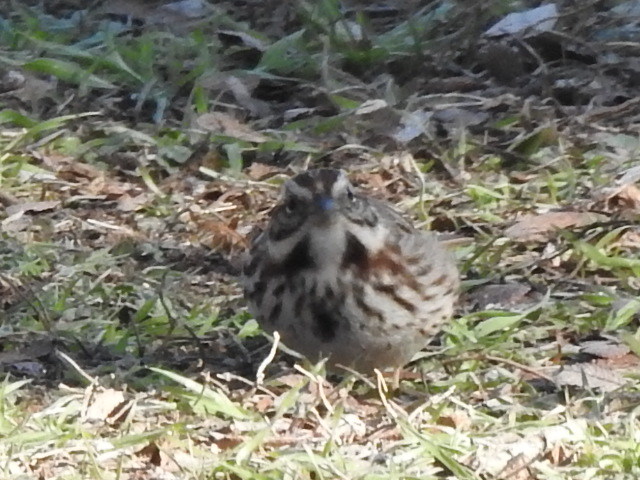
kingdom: Animalia
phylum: Chordata
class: Aves
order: Passeriformes
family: Passerellidae
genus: Melospiza
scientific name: Melospiza melodia
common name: Song sparrow
